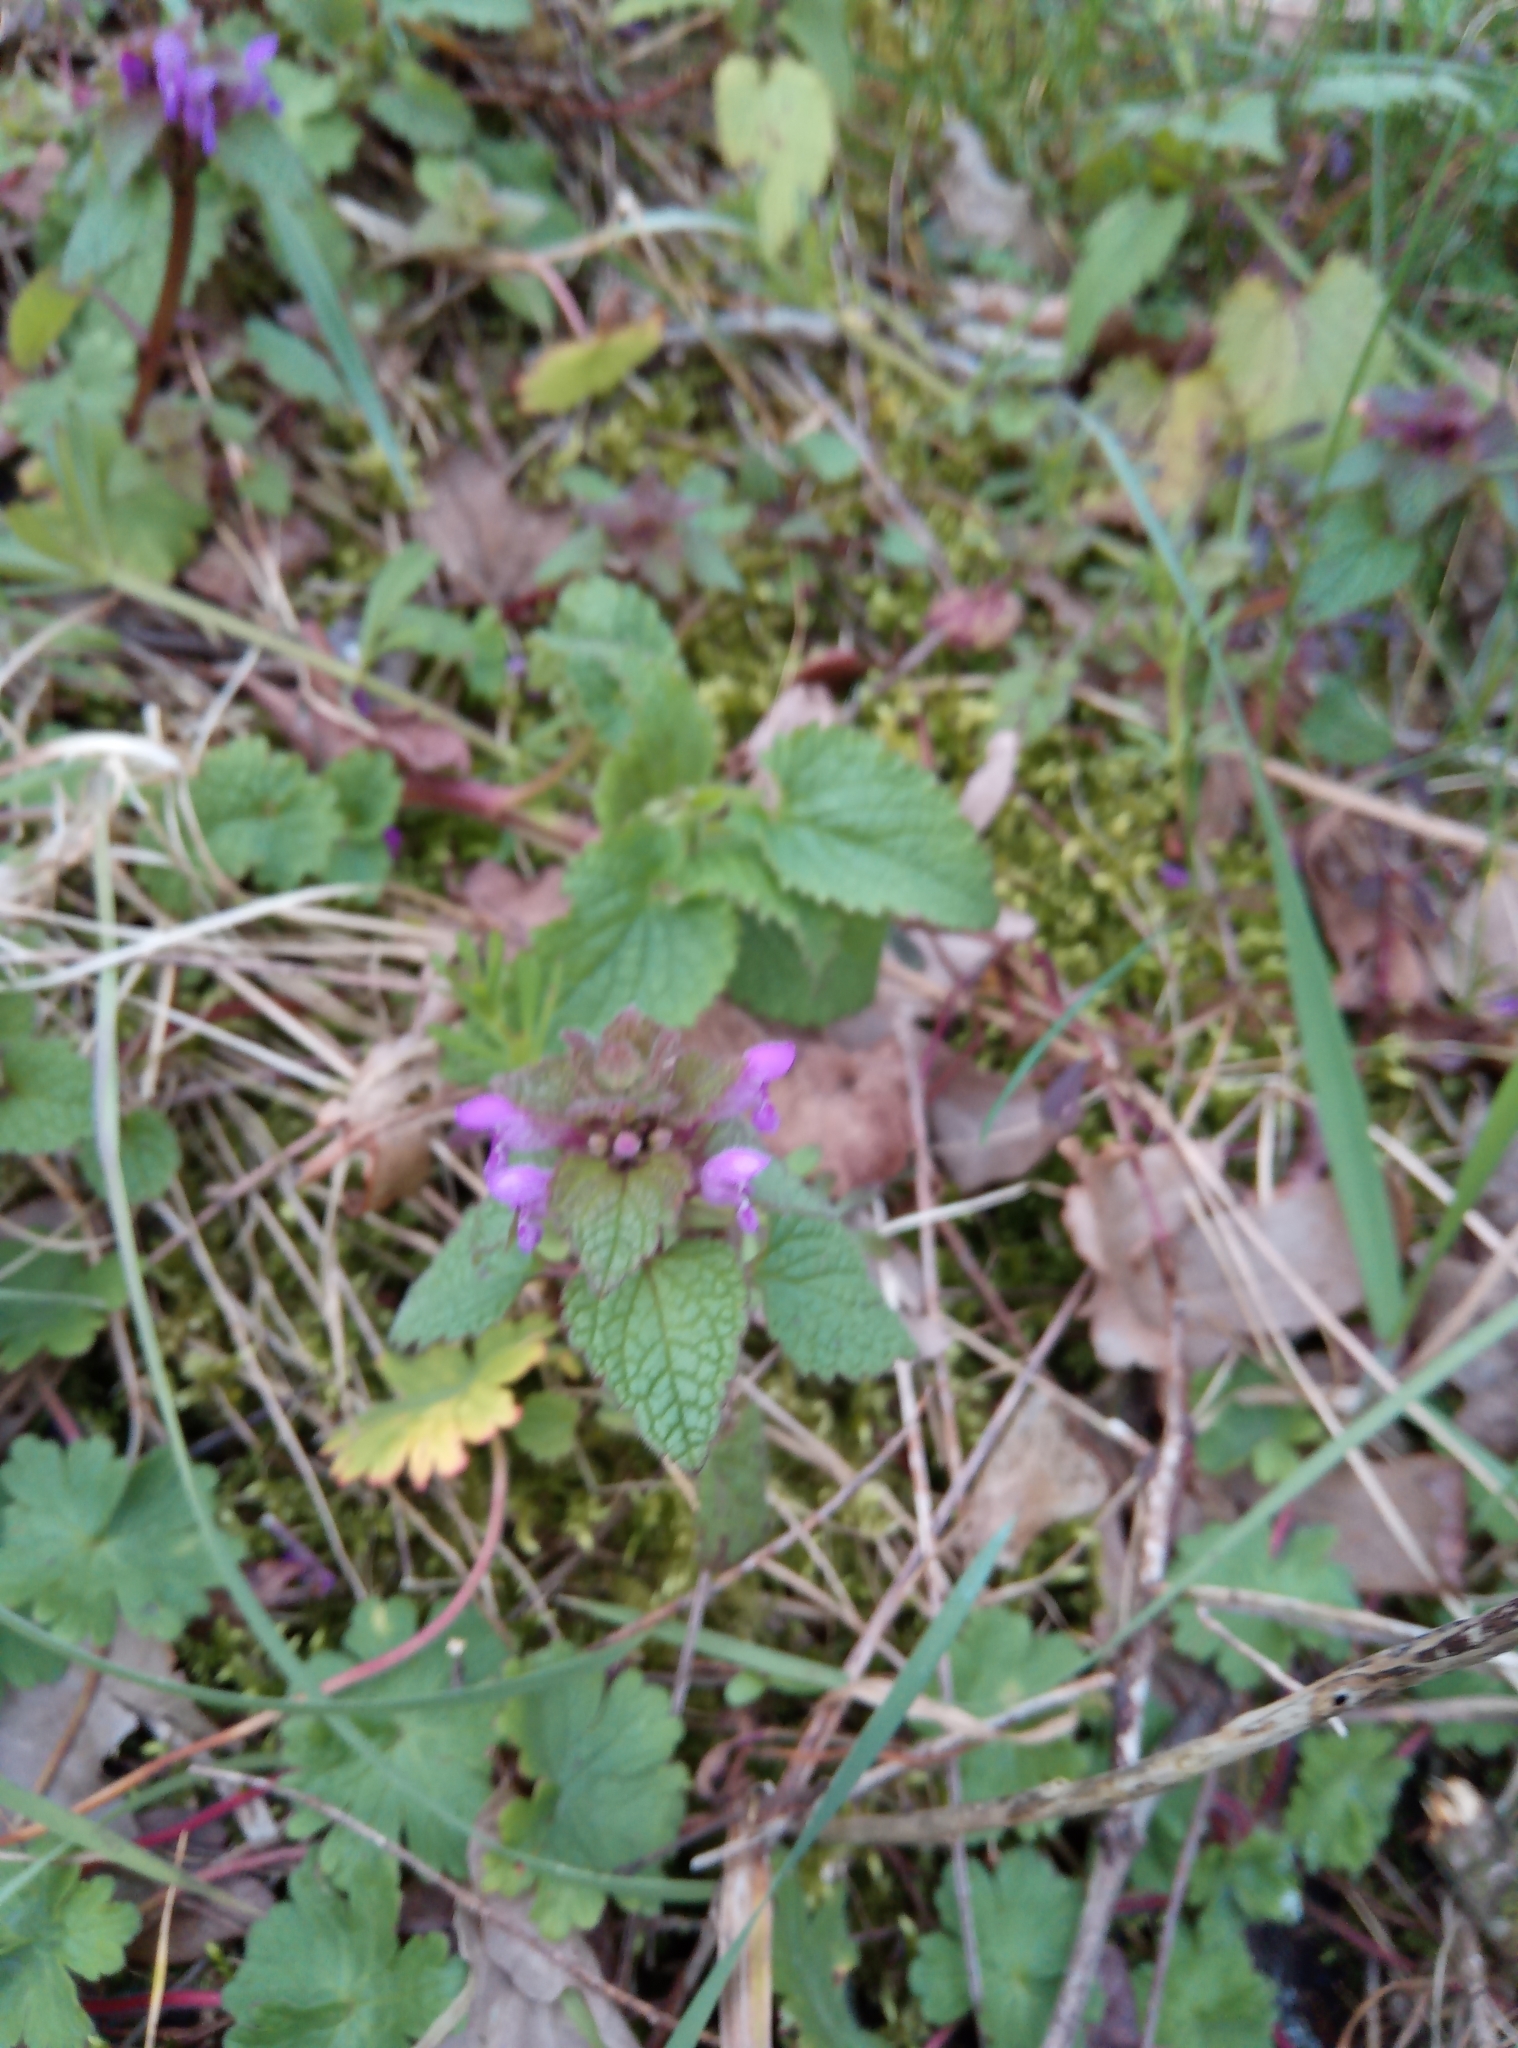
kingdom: Plantae
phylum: Tracheophyta
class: Magnoliopsida
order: Lamiales
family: Lamiaceae
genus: Lamium
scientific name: Lamium purpureum
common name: Red dead-nettle
